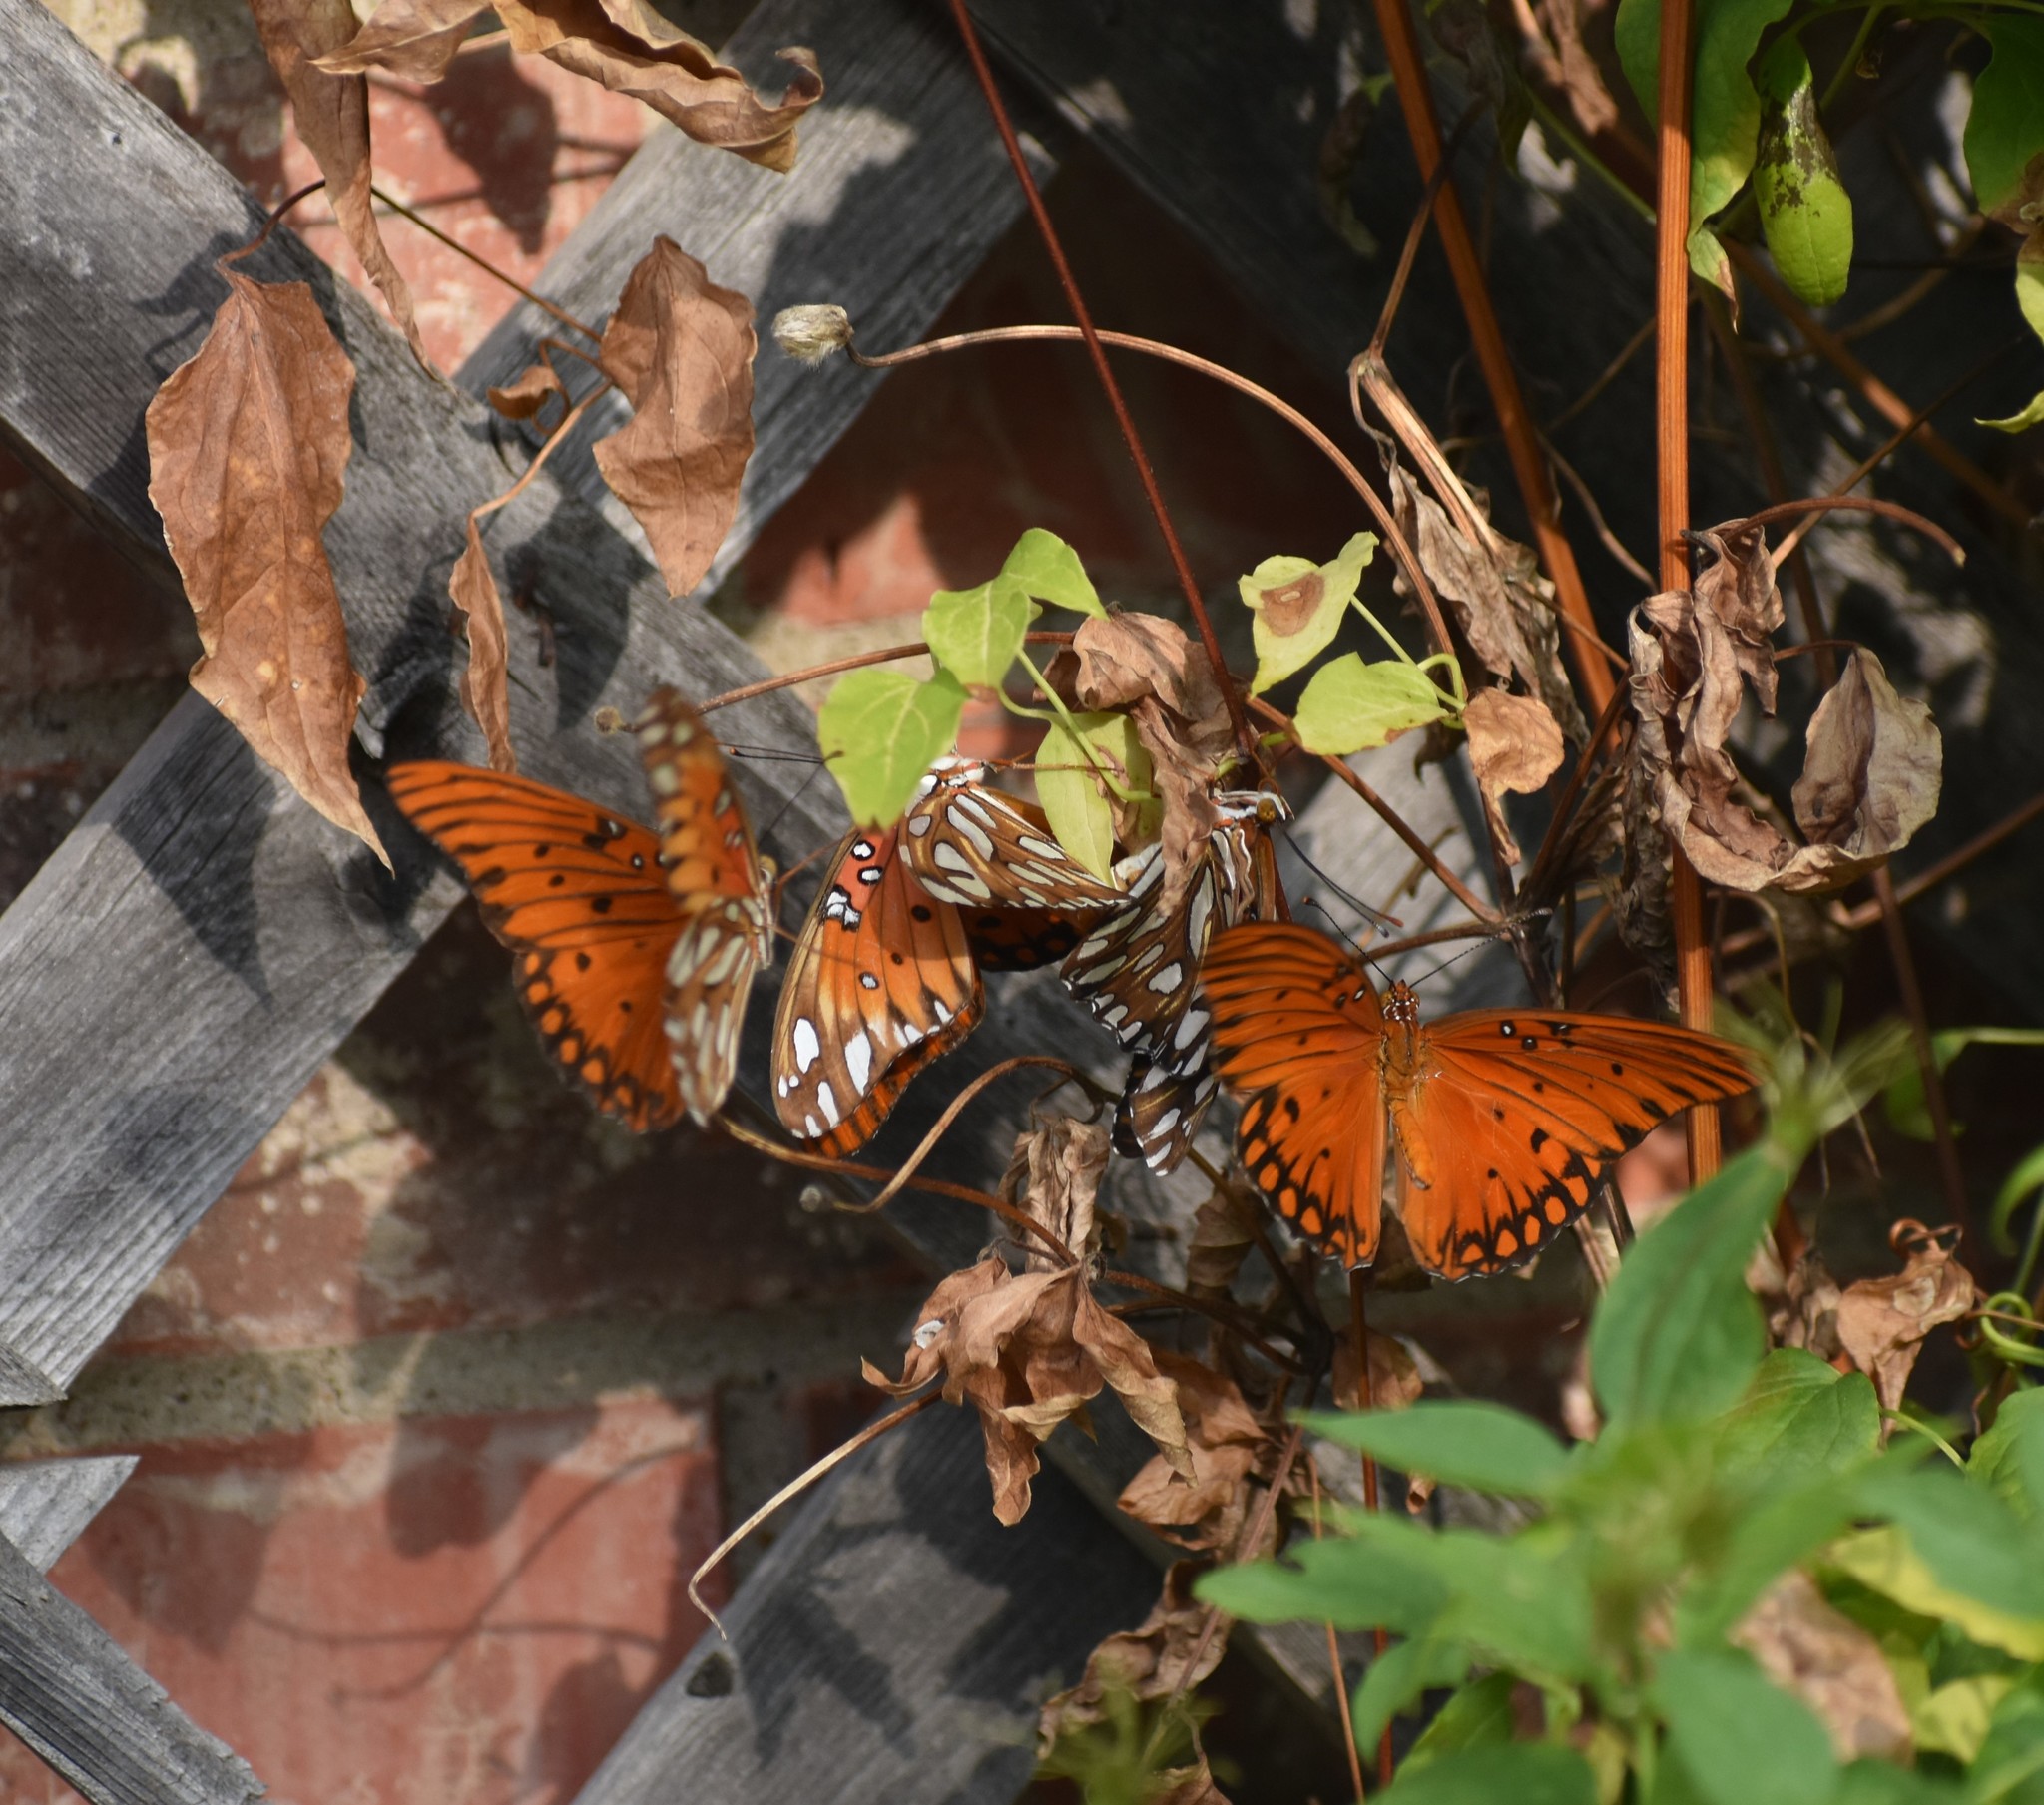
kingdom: Animalia
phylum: Arthropoda
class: Insecta
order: Lepidoptera
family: Nymphalidae
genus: Dione
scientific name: Dione vanillae
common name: Gulf fritillary
